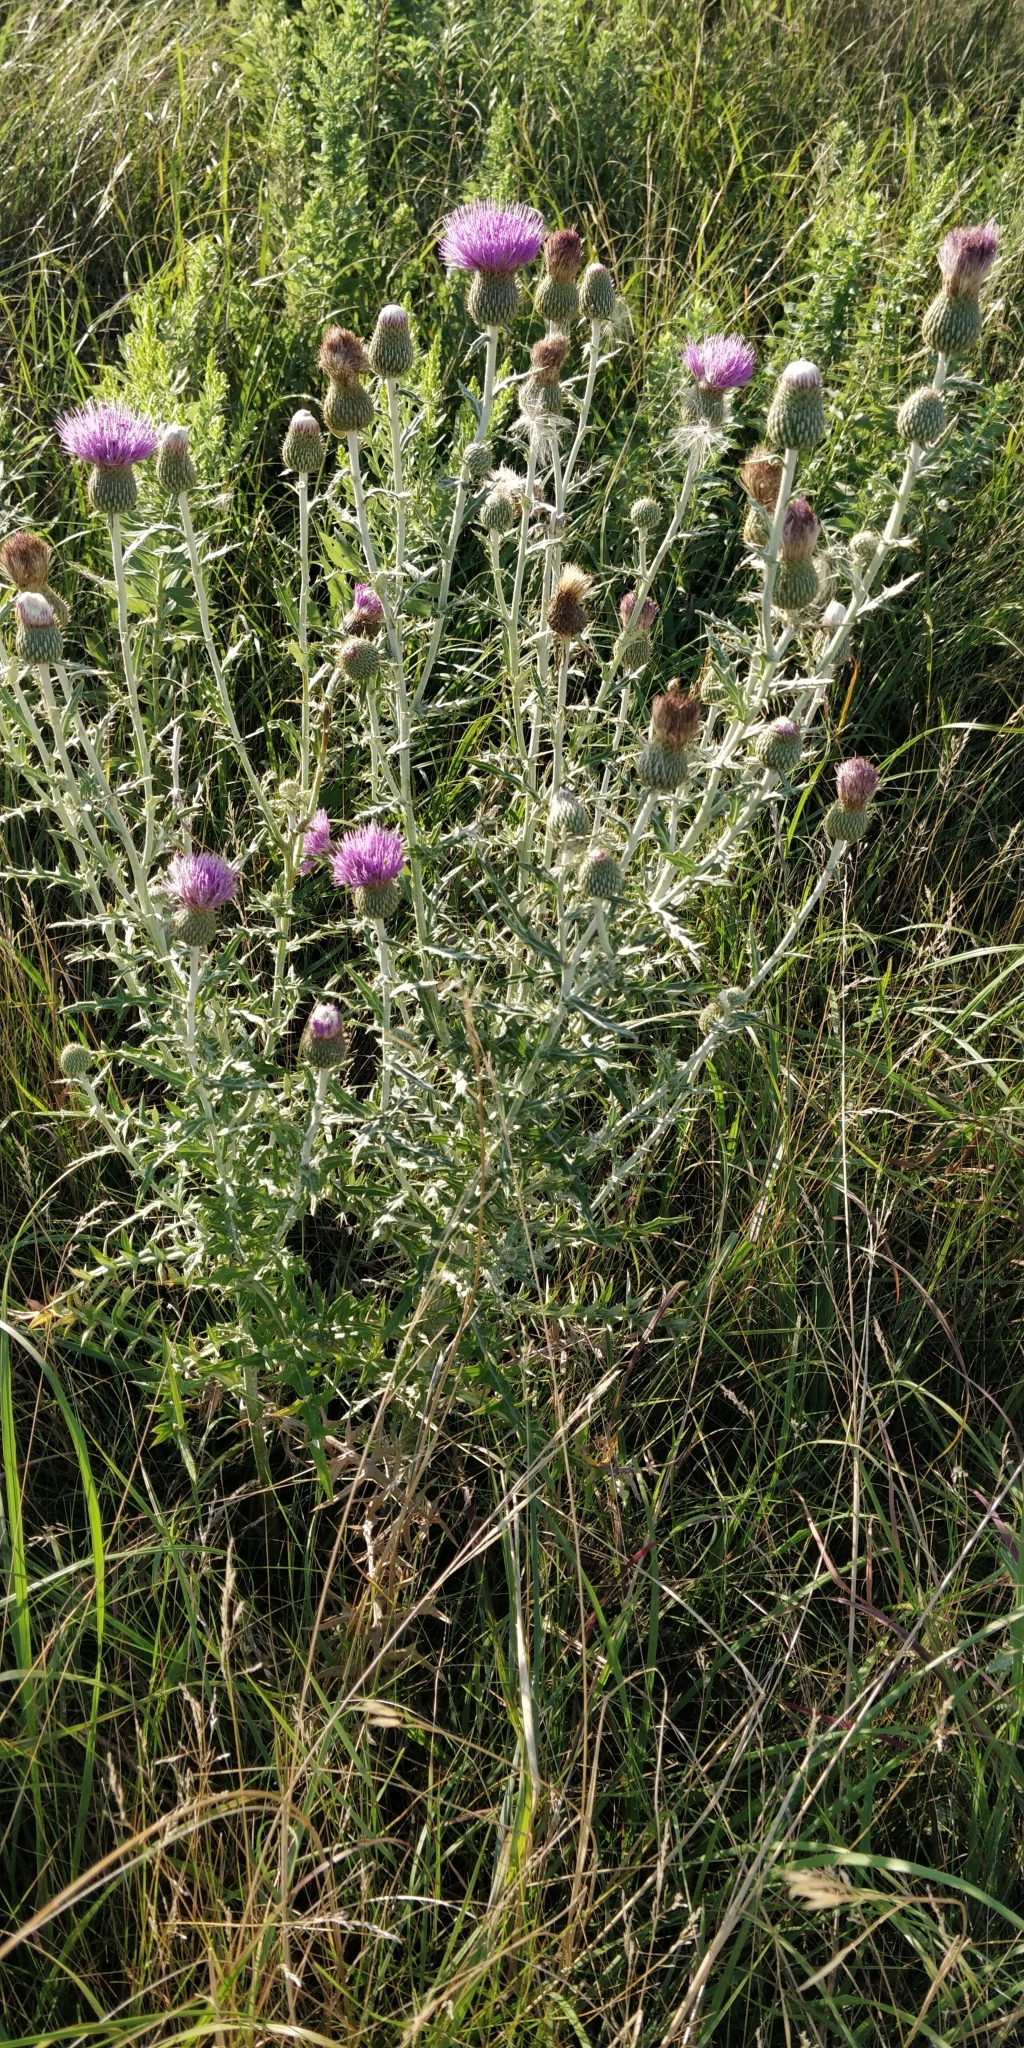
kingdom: Plantae
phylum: Tracheophyta
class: Magnoliopsida
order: Asterales
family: Asteraceae
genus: Cirsium
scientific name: Cirsium flodmanii
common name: Flodman's thistle
